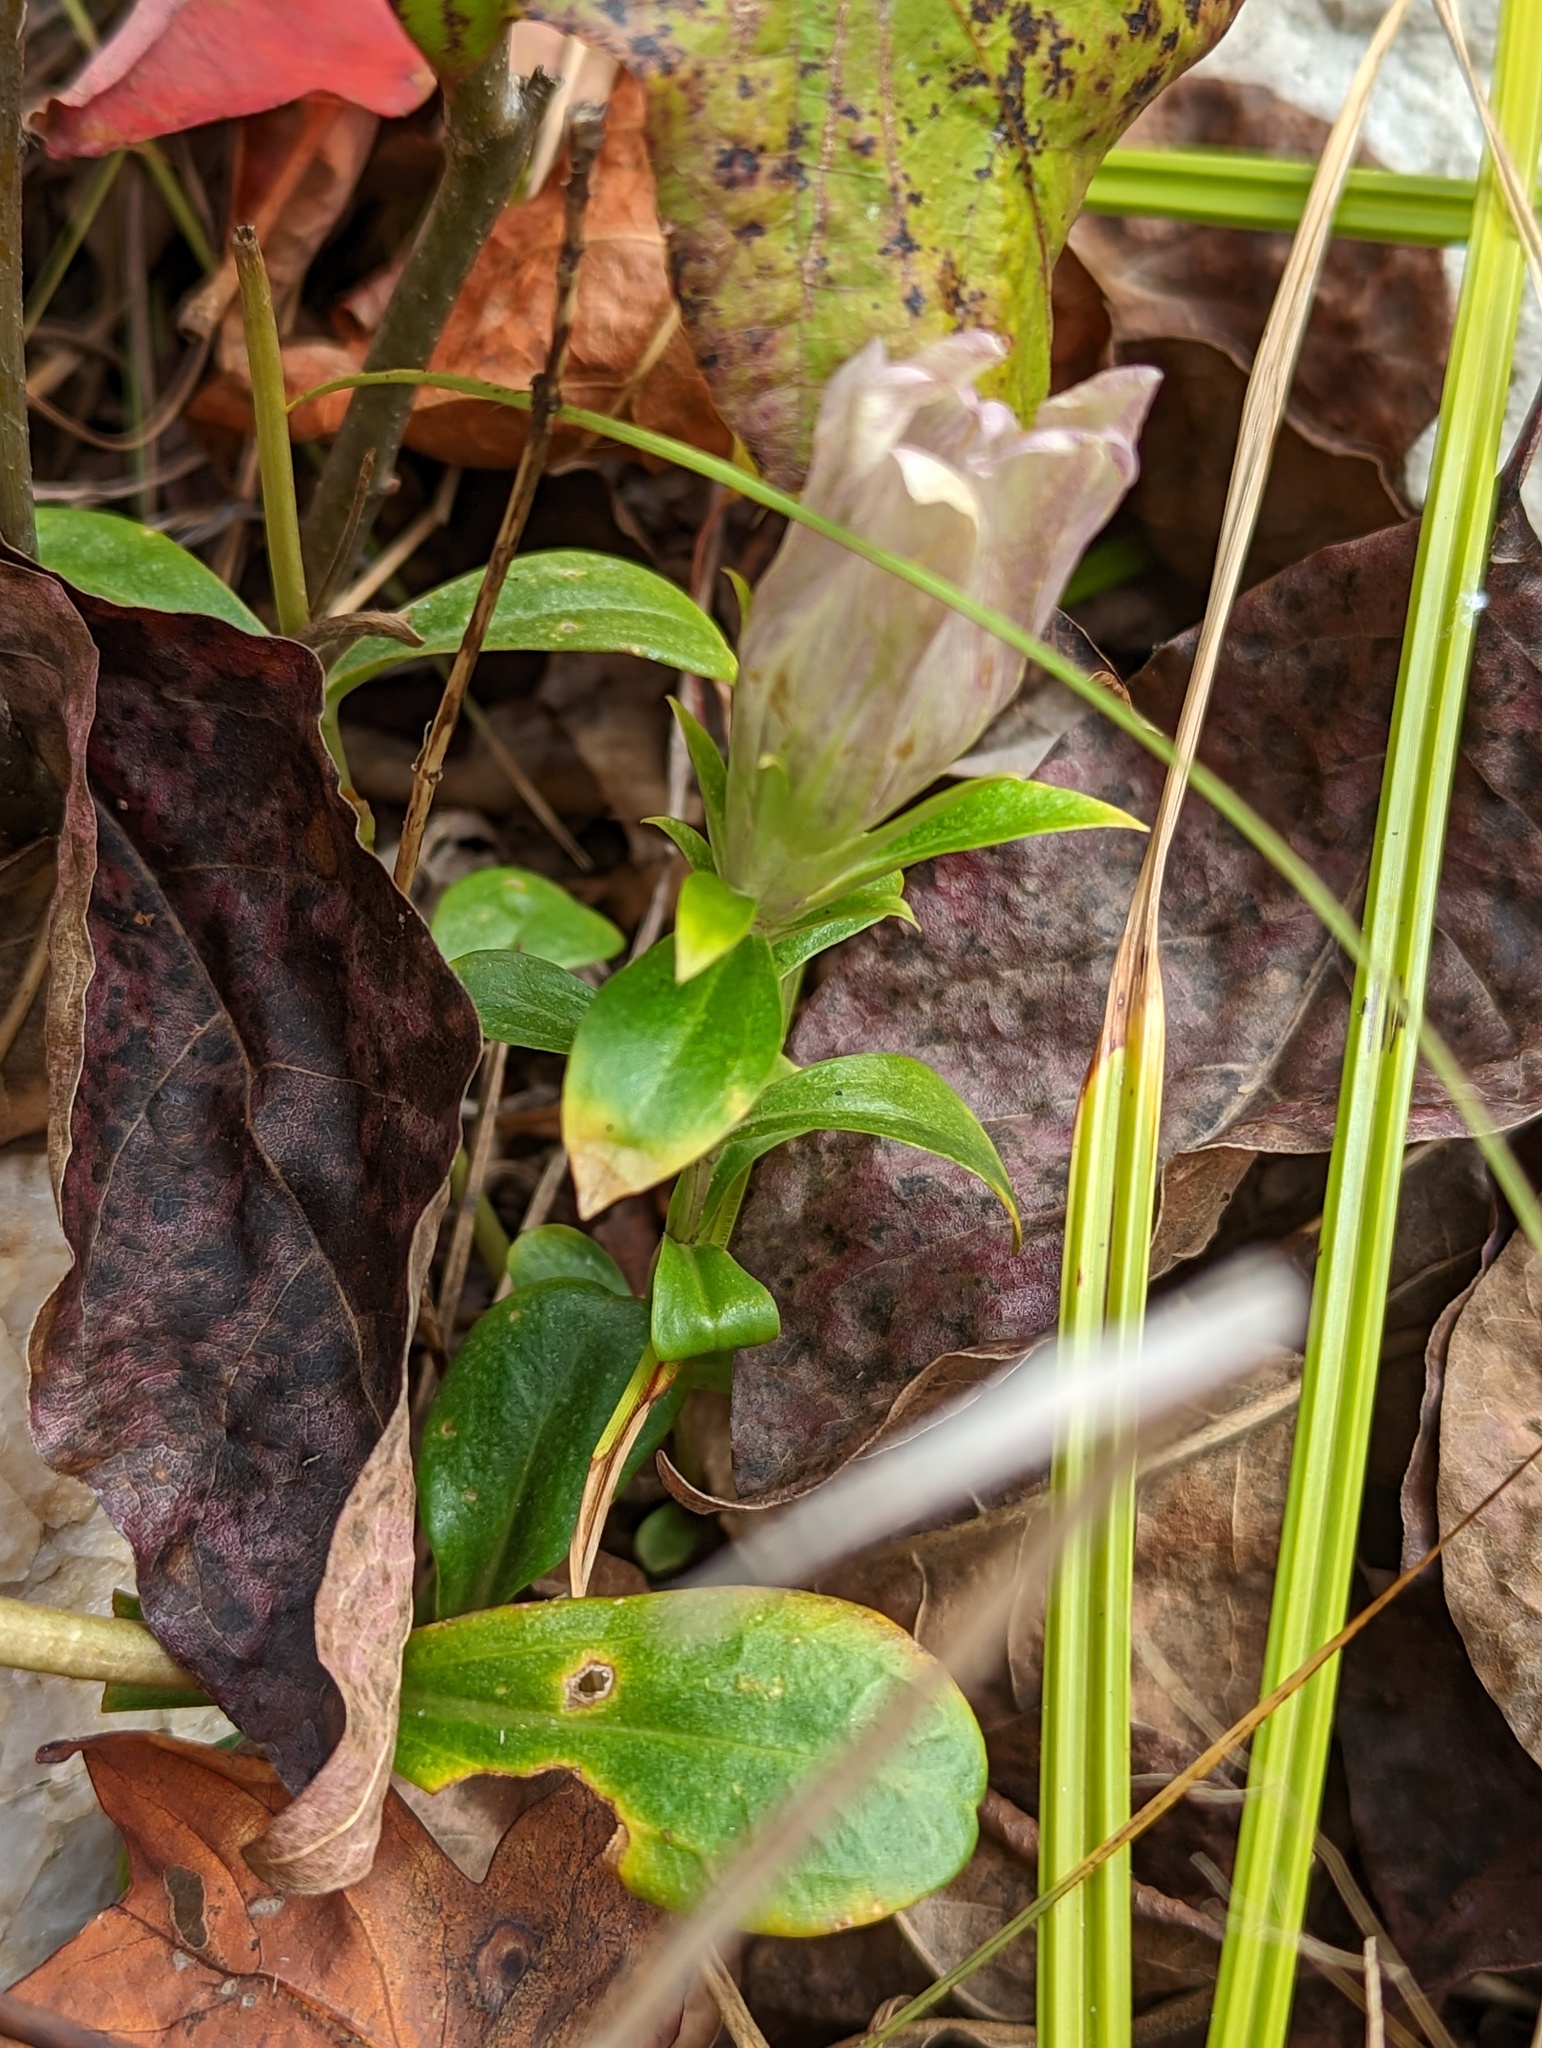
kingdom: Plantae
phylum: Tracheophyta
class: Magnoliopsida
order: Gentianales
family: Gentianaceae
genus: Gentiana
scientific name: Gentiana villosa
